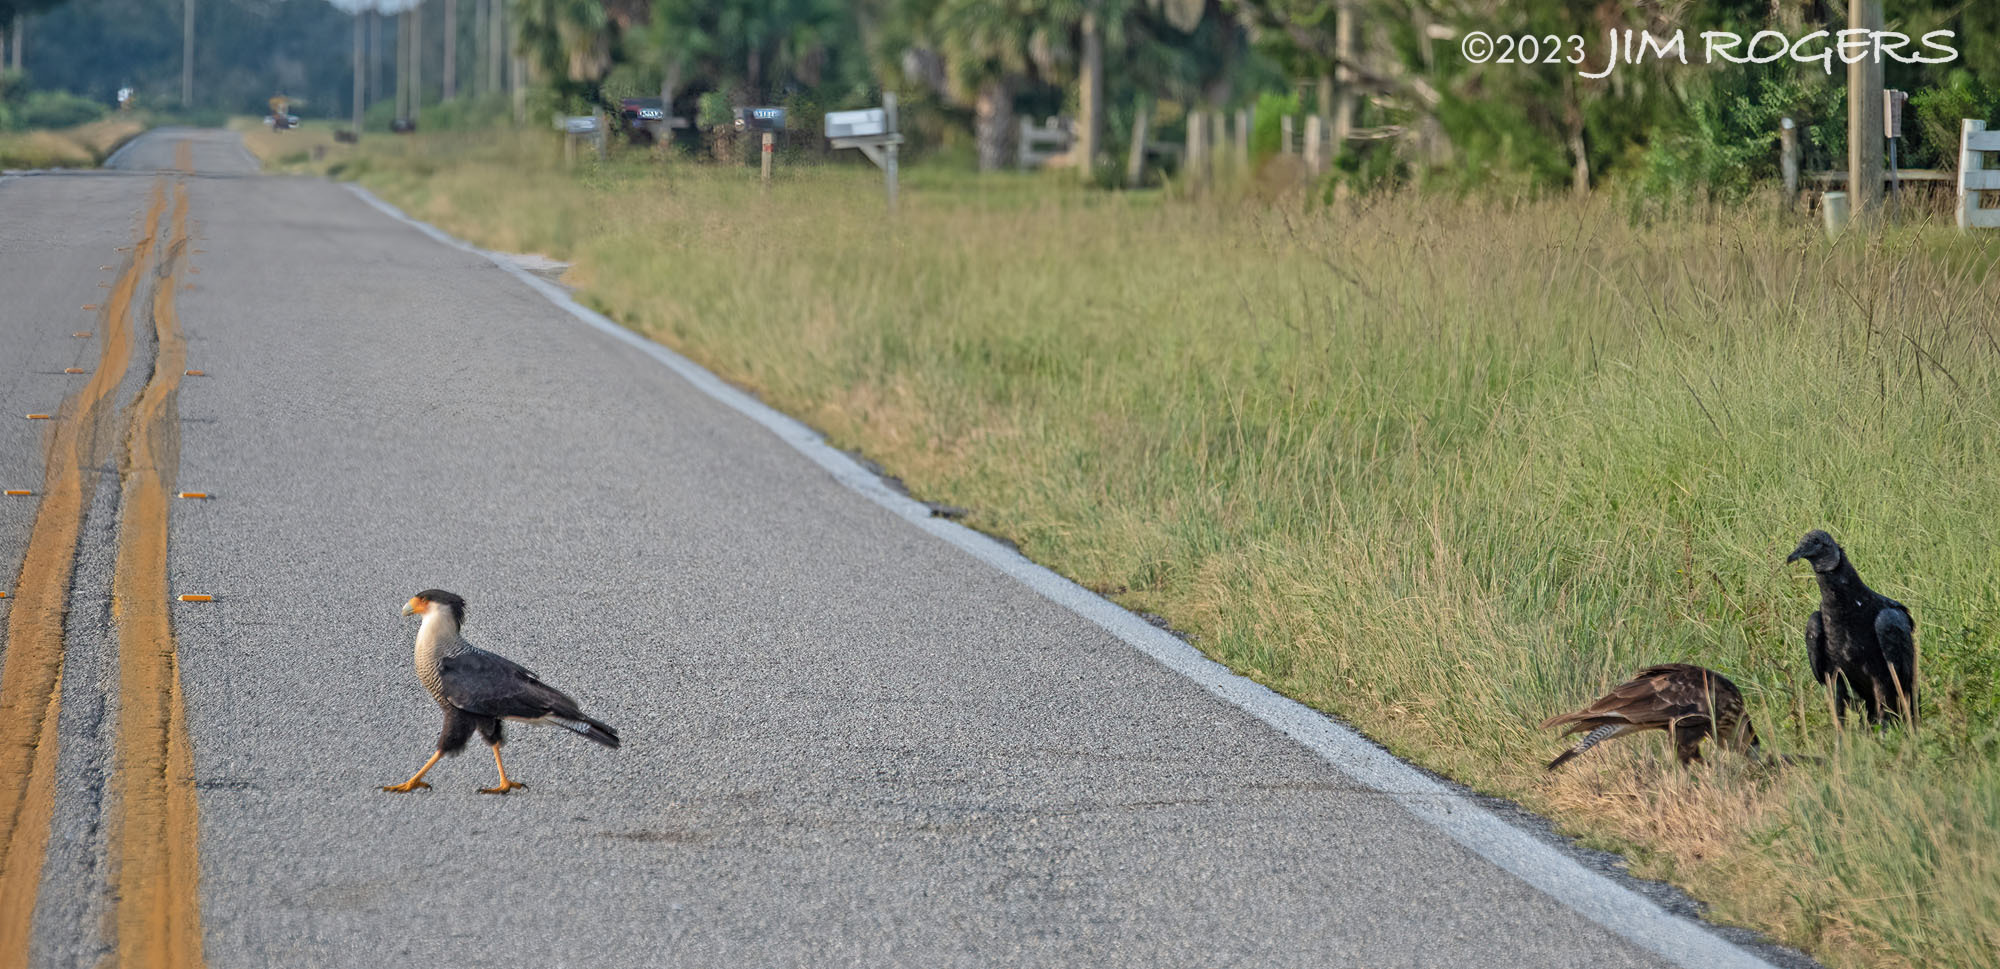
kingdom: Animalia
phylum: Chordata
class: Aves
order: Falconiformes
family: Falconidae
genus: Caracara
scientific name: Caracara plancus
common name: Southern caracara
